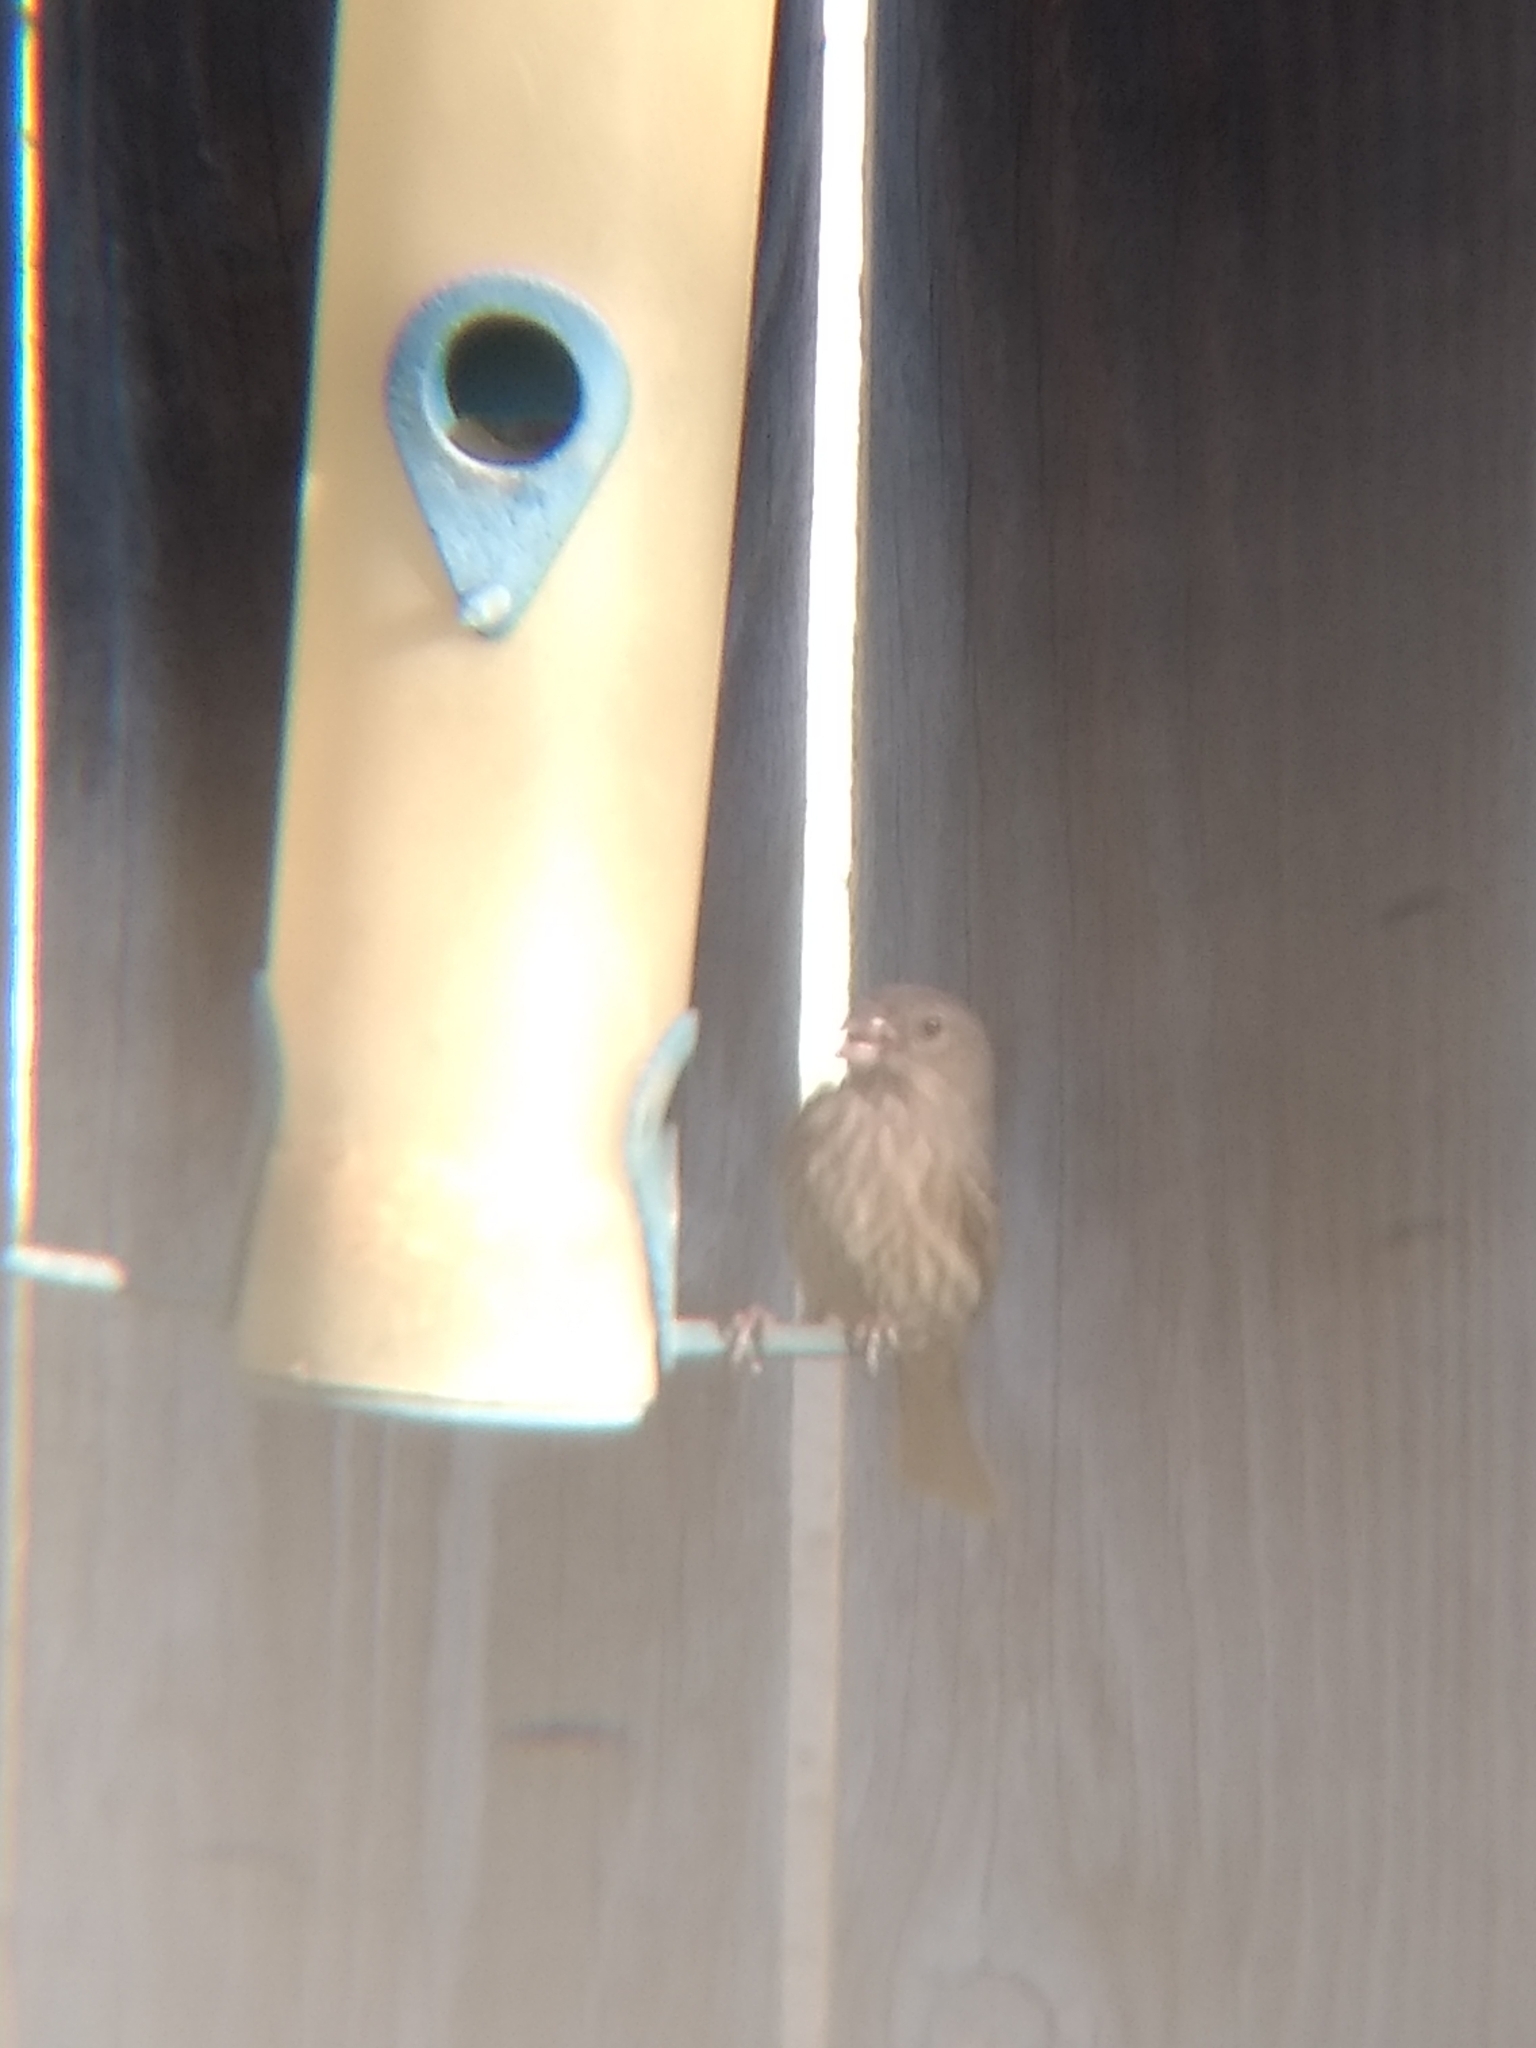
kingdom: Animalia
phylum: Chordata
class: Aves
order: Passeriformes
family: Fringillidae
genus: Haemorhous
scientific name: Haemorhous mexicanus
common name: House finch
